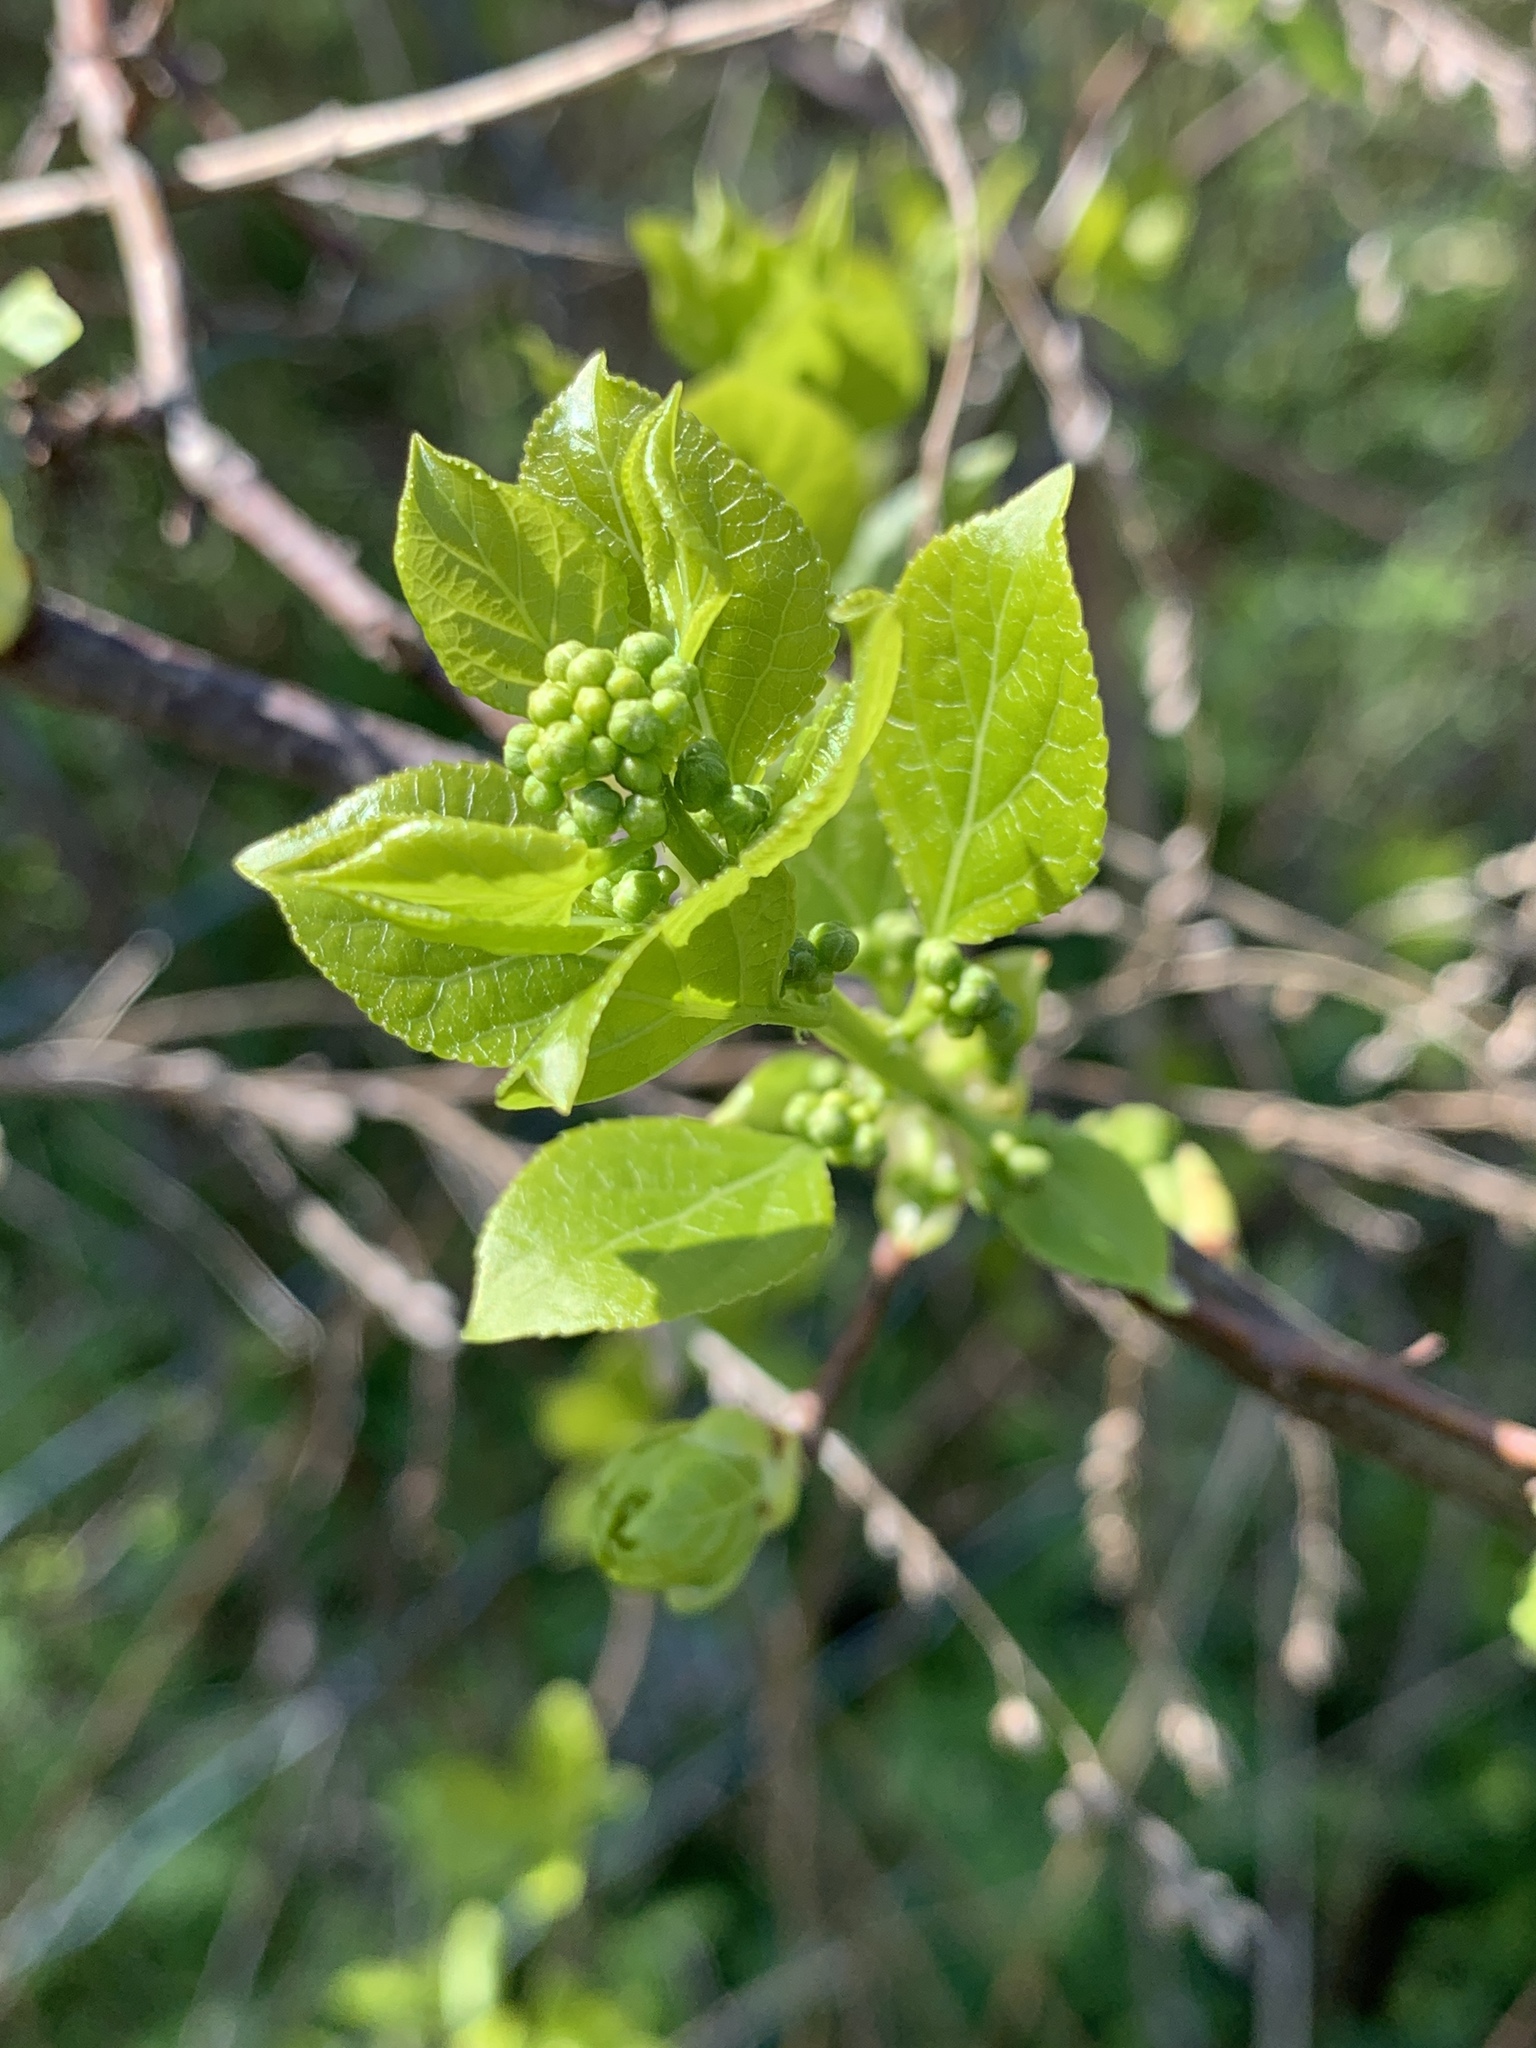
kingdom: Plantae
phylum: Tracheophyta
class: Magnoliopsida
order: Celastrales
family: Celastraceae
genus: Celastrus
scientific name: Celastrus orbiculatus
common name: Oriental bittersweet
